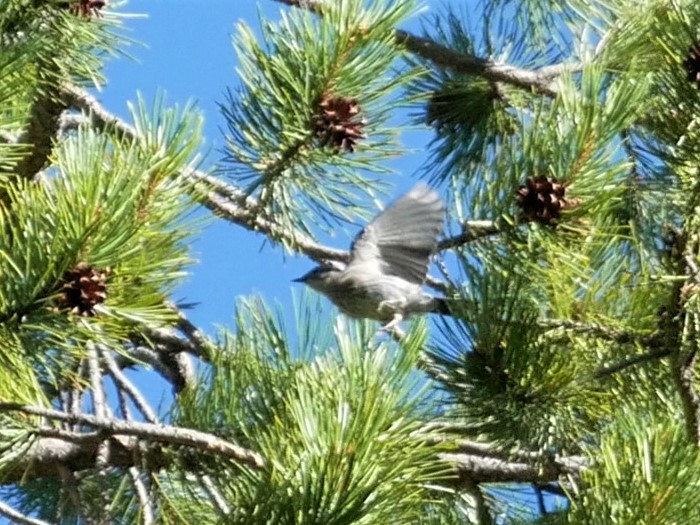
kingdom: Animalia
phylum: Chordata
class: Aves
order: Passeriformes
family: Parulidae
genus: Setophaga
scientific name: Setophaga coronata
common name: Myrtle warbler
